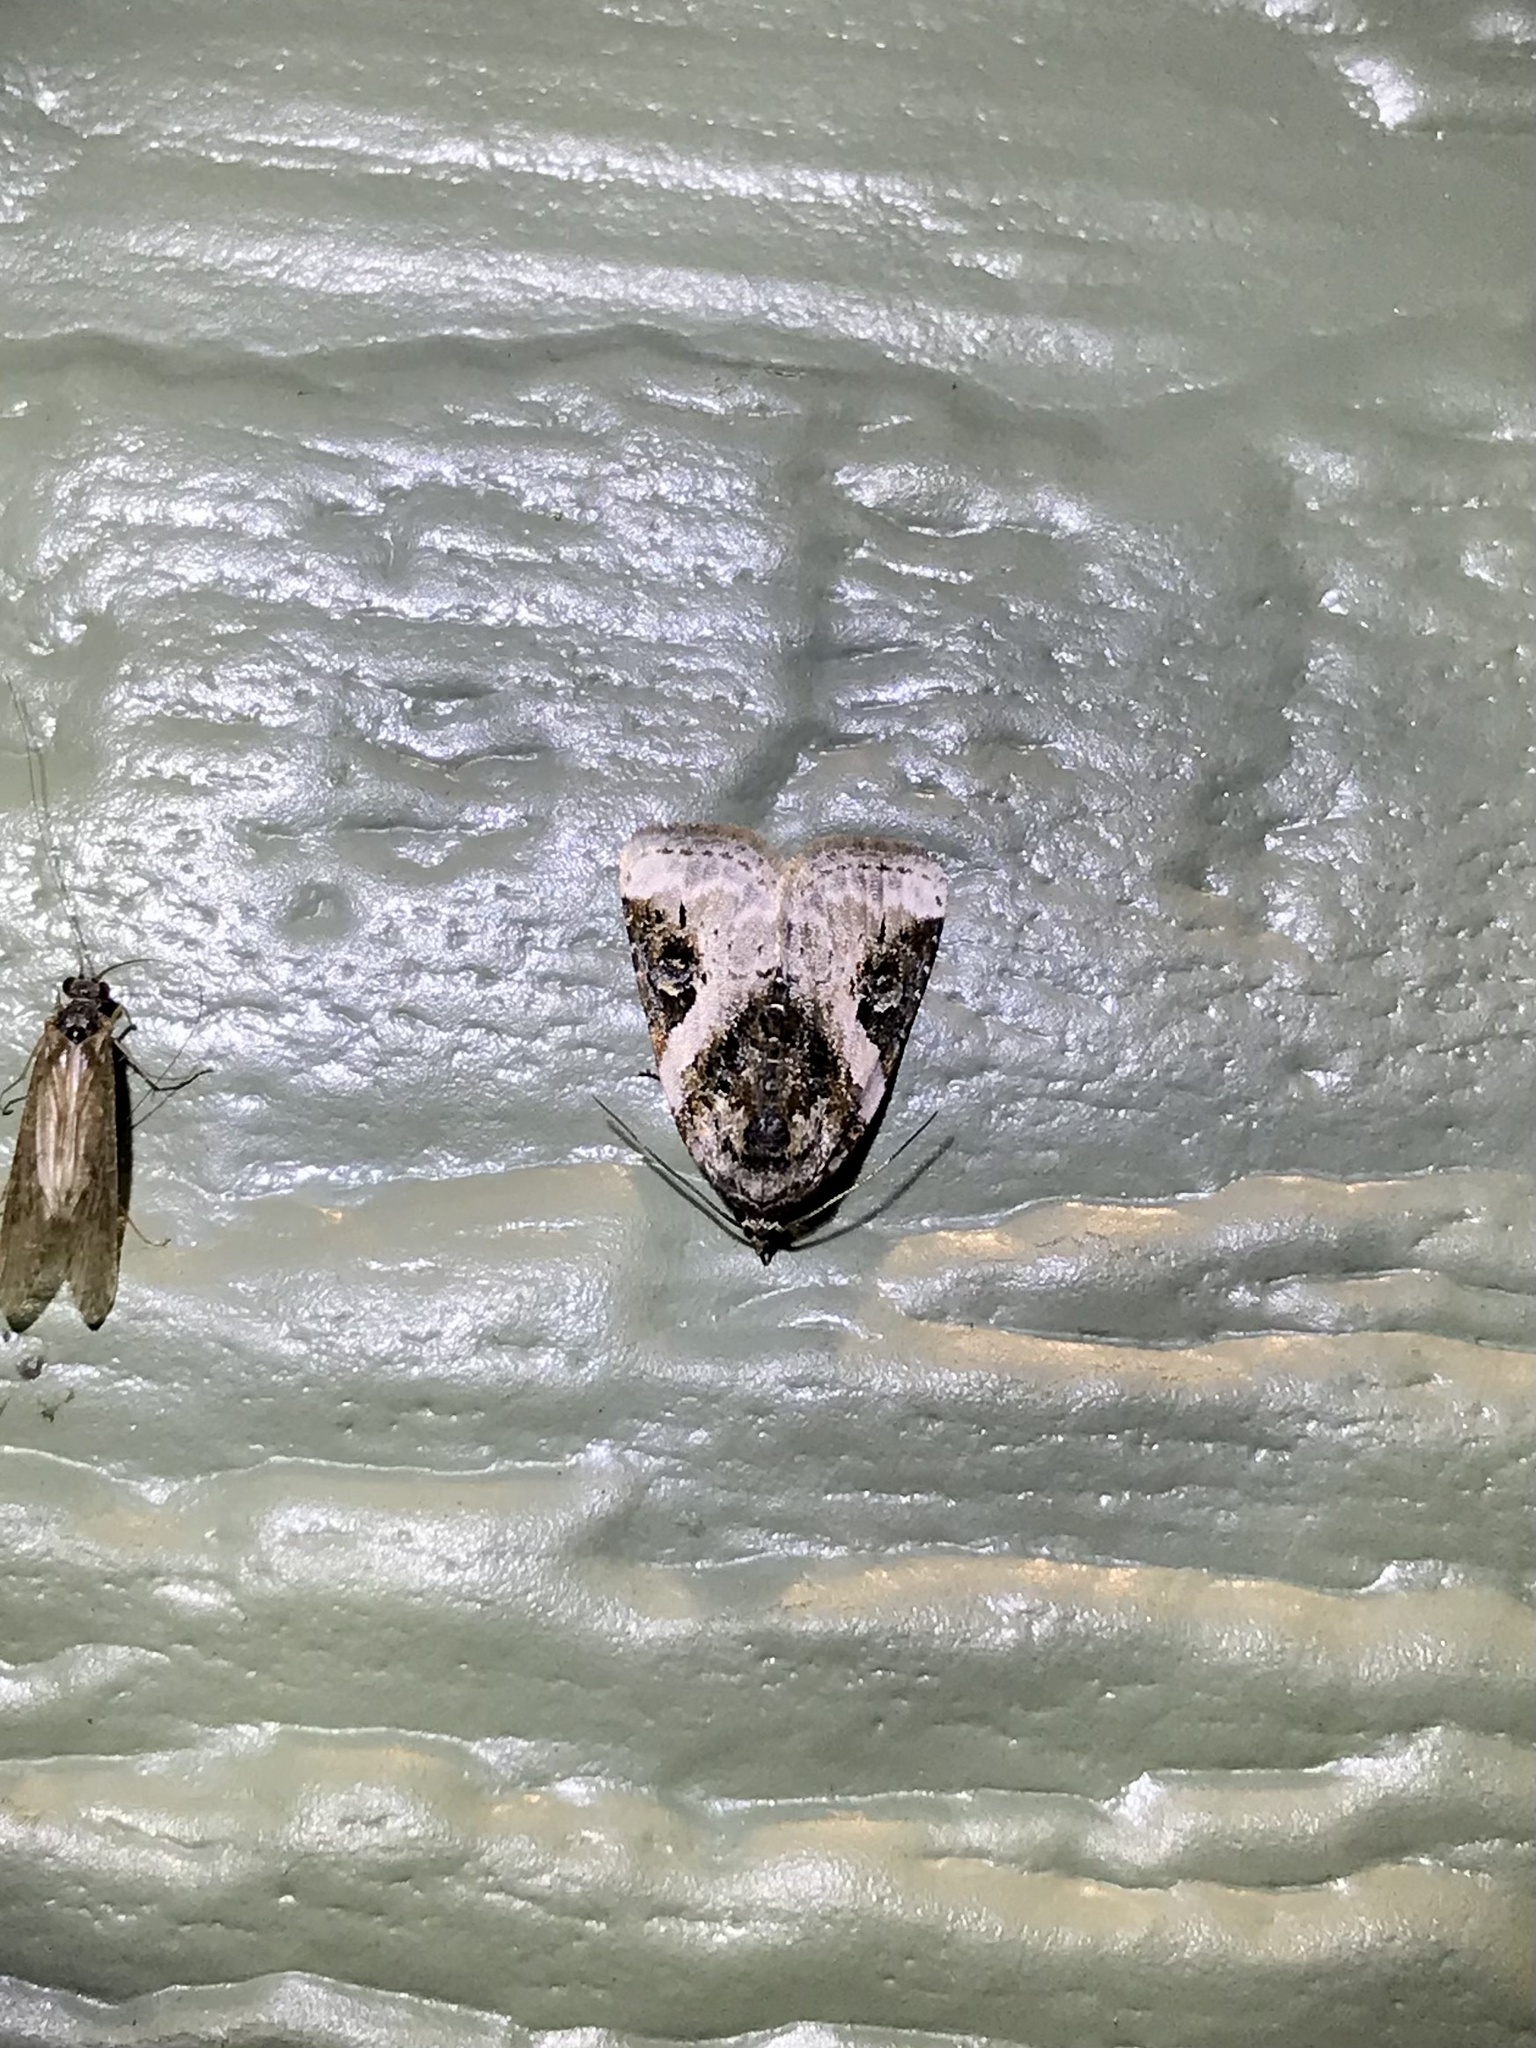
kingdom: Animalia
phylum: Arthropoda
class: Insecta
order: Lepidoptera
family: Noctuidae
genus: Pseudeustrotia
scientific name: Pseudeustrotia carneola
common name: Pink-barred lithacodia moth
